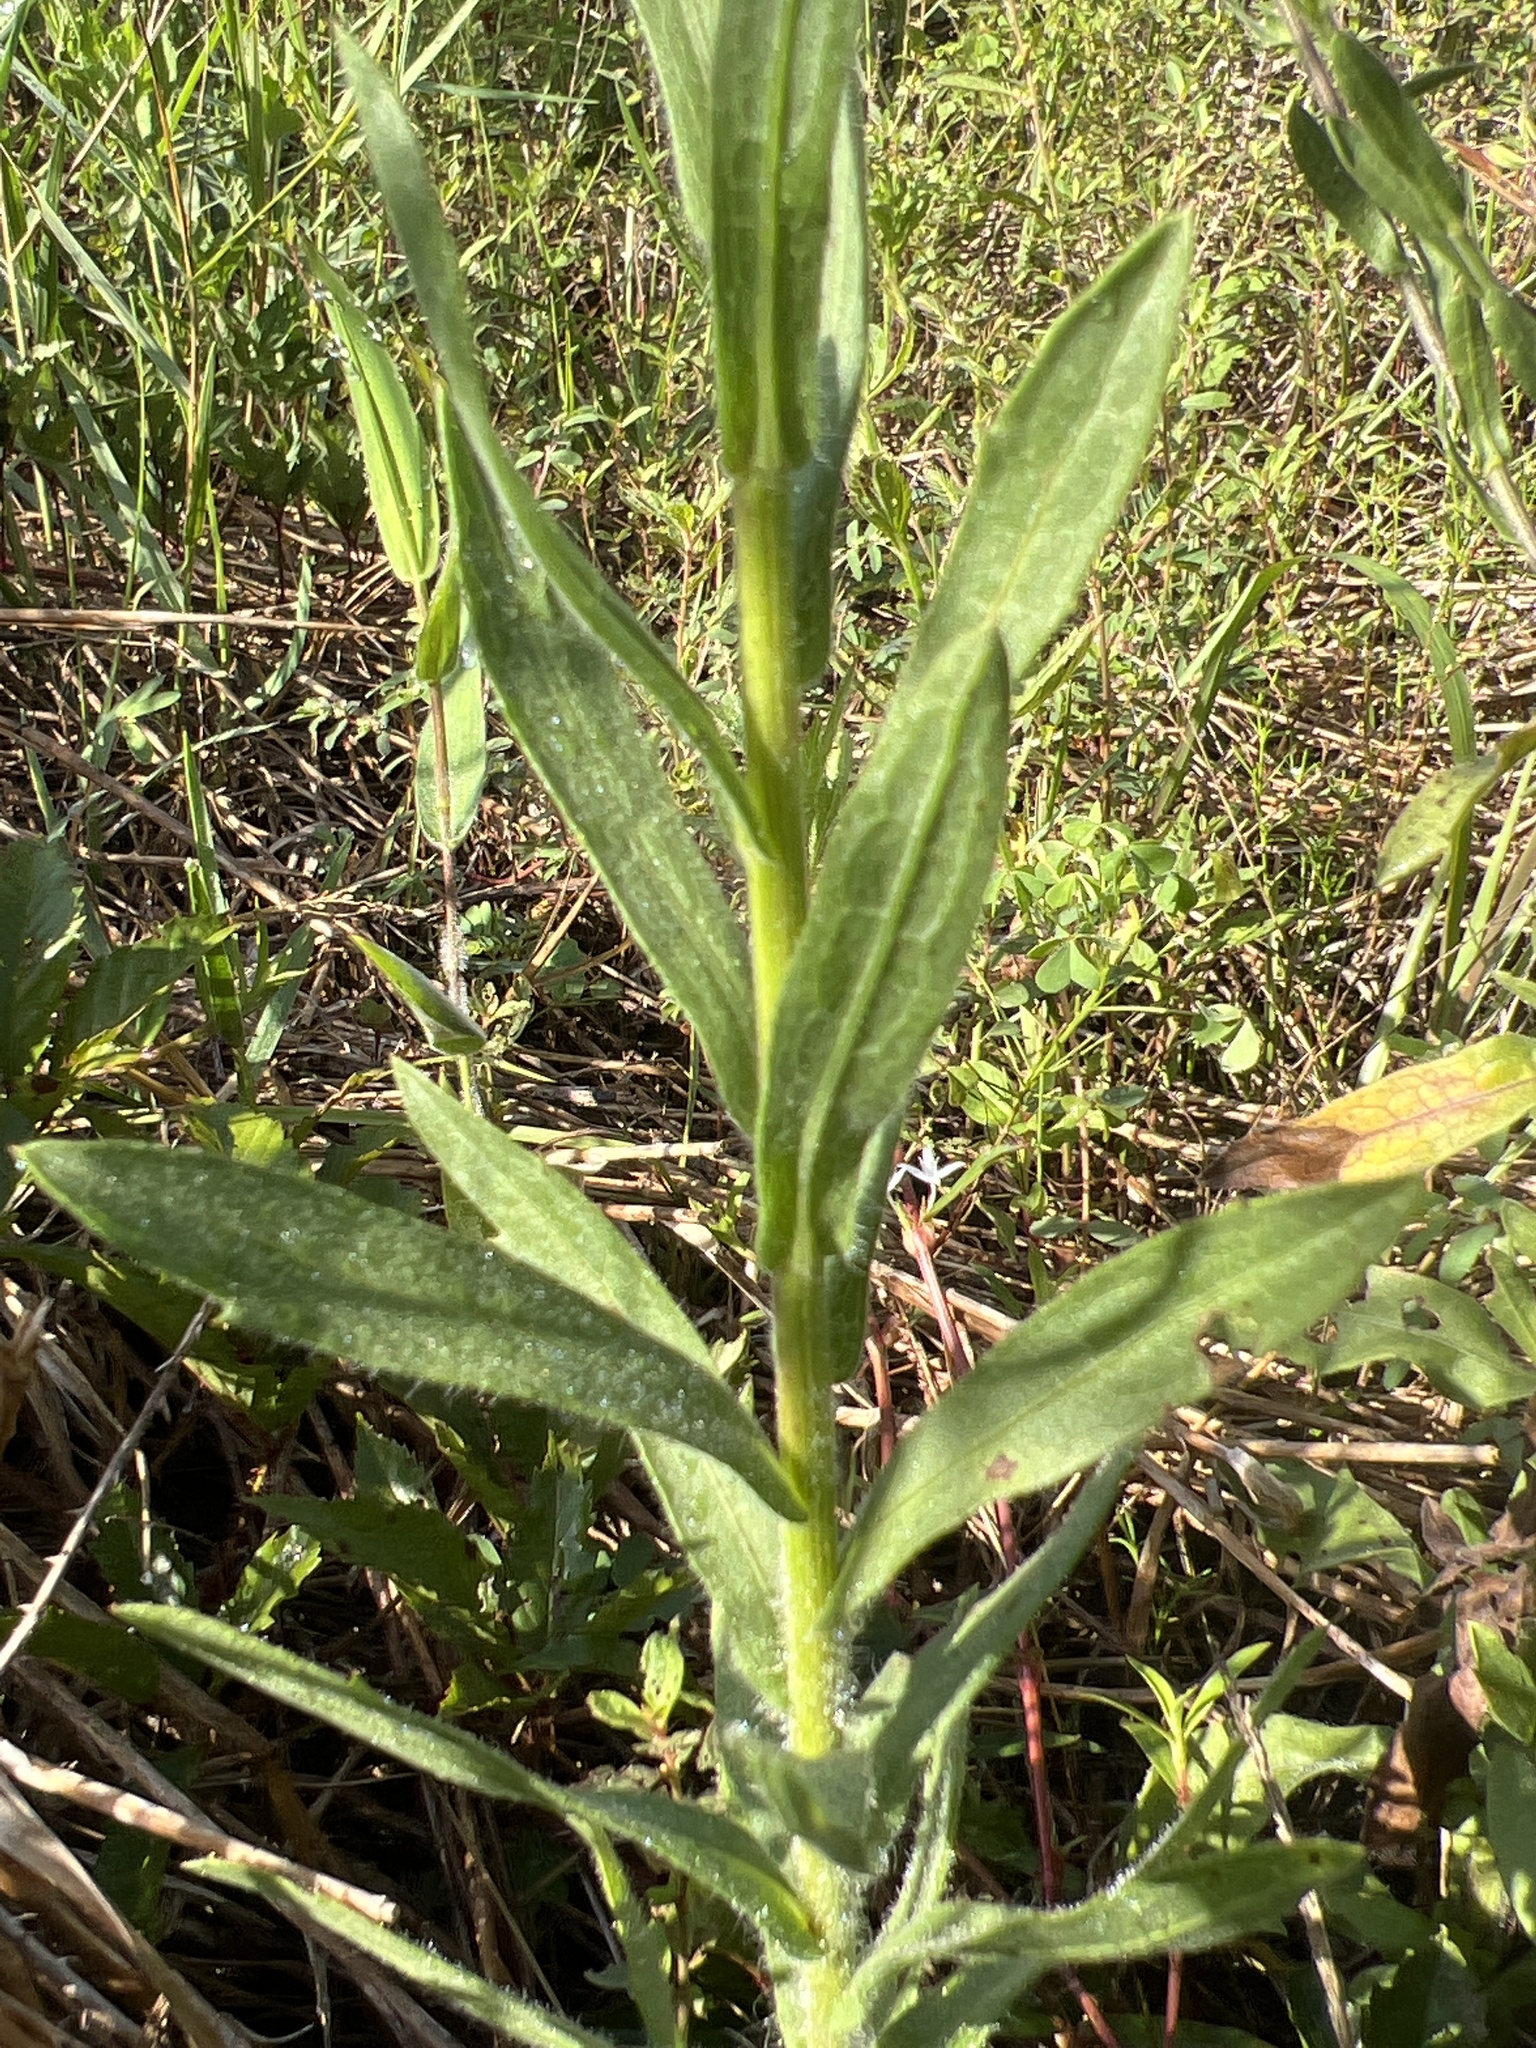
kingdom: Plantae
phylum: Tracheophyta
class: Magnoliopsida
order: Asterales
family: Asteraceae
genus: Bradburia
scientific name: Bradburia pilosa
